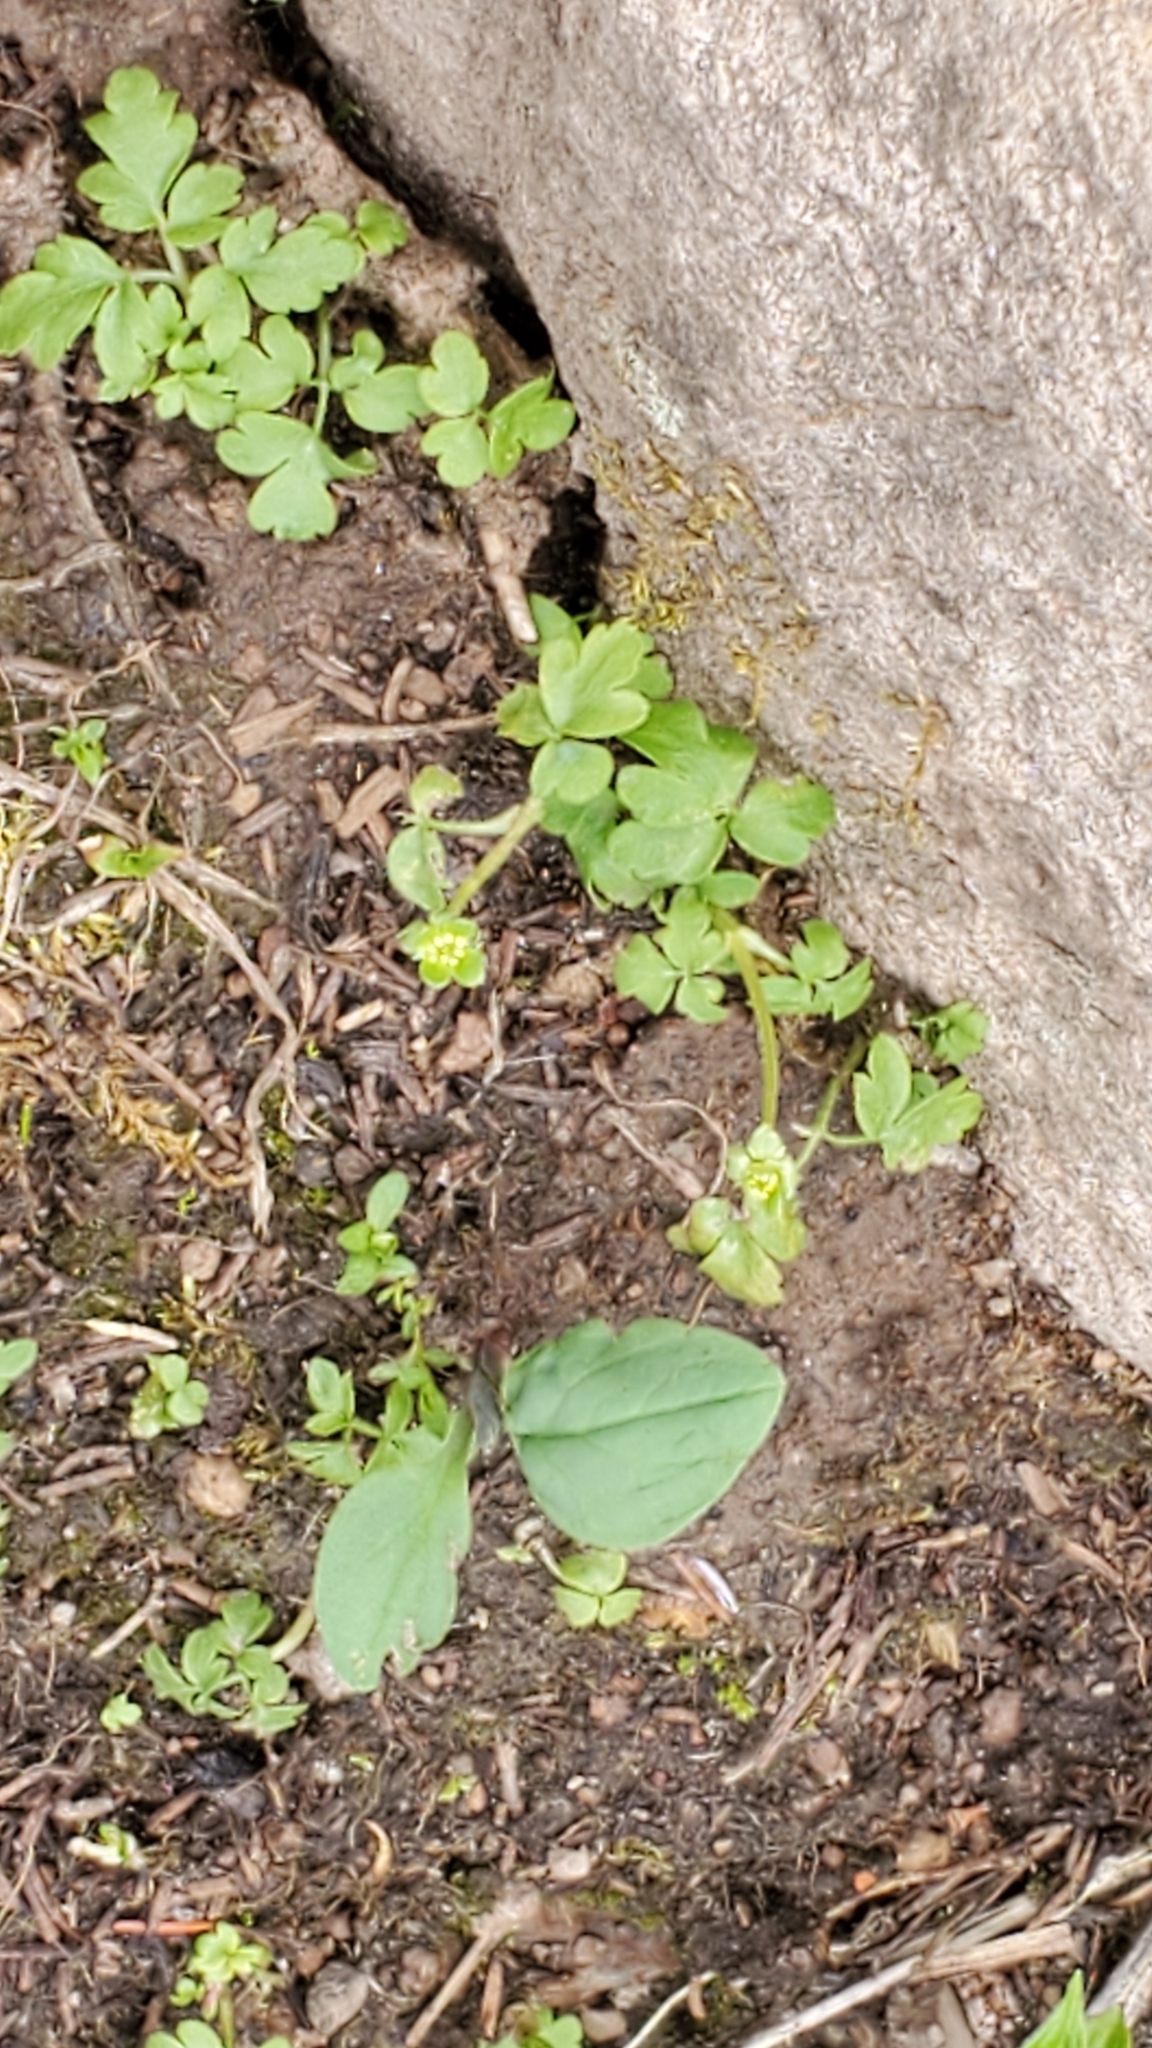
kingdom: Plantae
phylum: Tracheophyta
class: Magnoliopsida
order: Dipsacales
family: Viburnaceae
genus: Adoxa
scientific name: Adoxa moschatellina
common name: Moschatel
